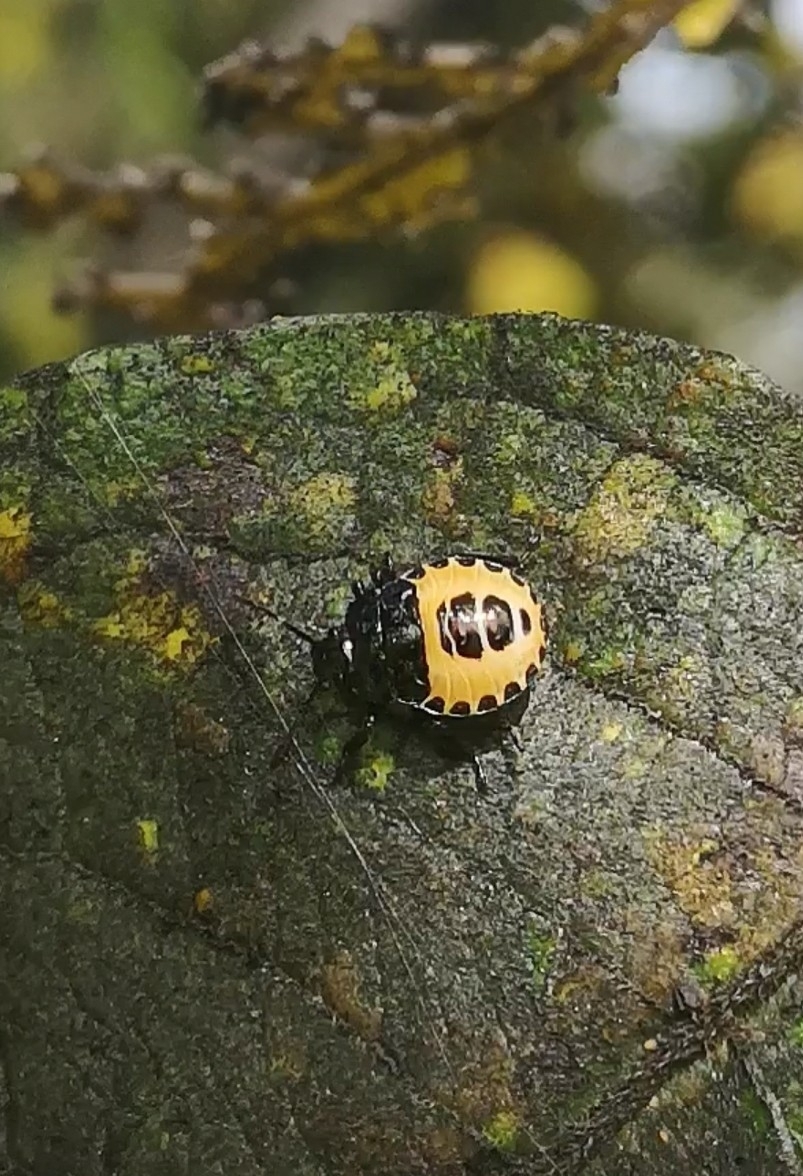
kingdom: Animalia
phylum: Arthropoda
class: Insecta
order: Hemiptera
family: Pentatomidae
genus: Troilus
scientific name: Troilus luridus
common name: Bronze shieldbug
